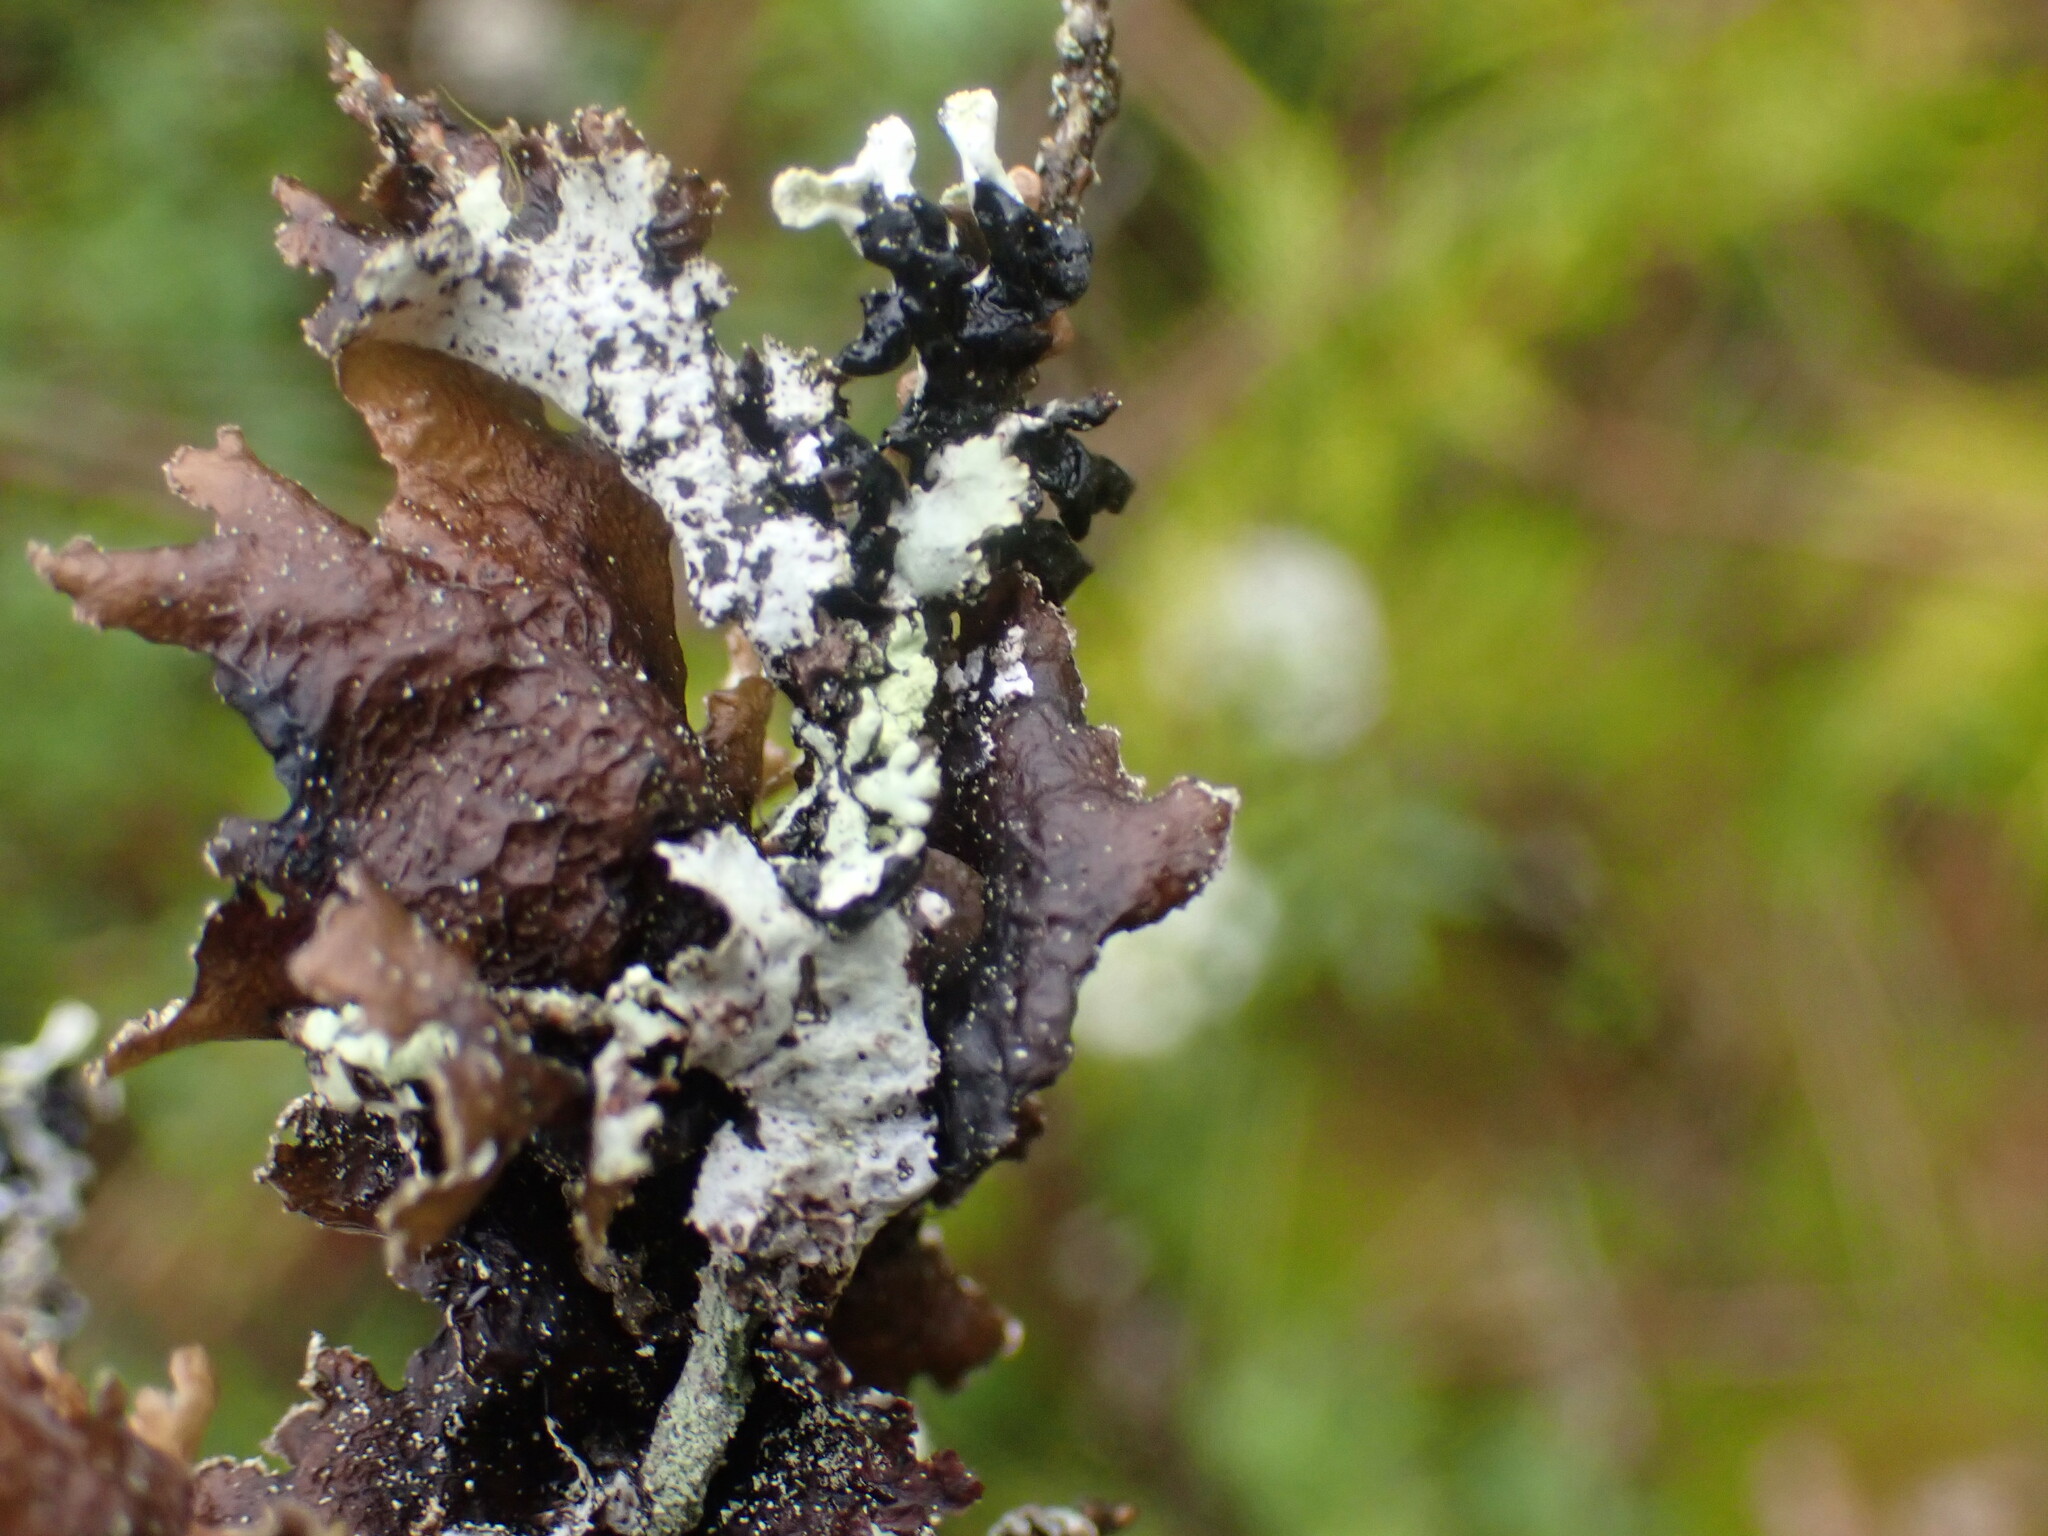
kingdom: Fungi
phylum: Ascomycota
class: Lecanoromycetes
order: Lecanorales
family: Parmeliaceae
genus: Platismatia
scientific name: Platismatia glauca
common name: Varied rag lichen
